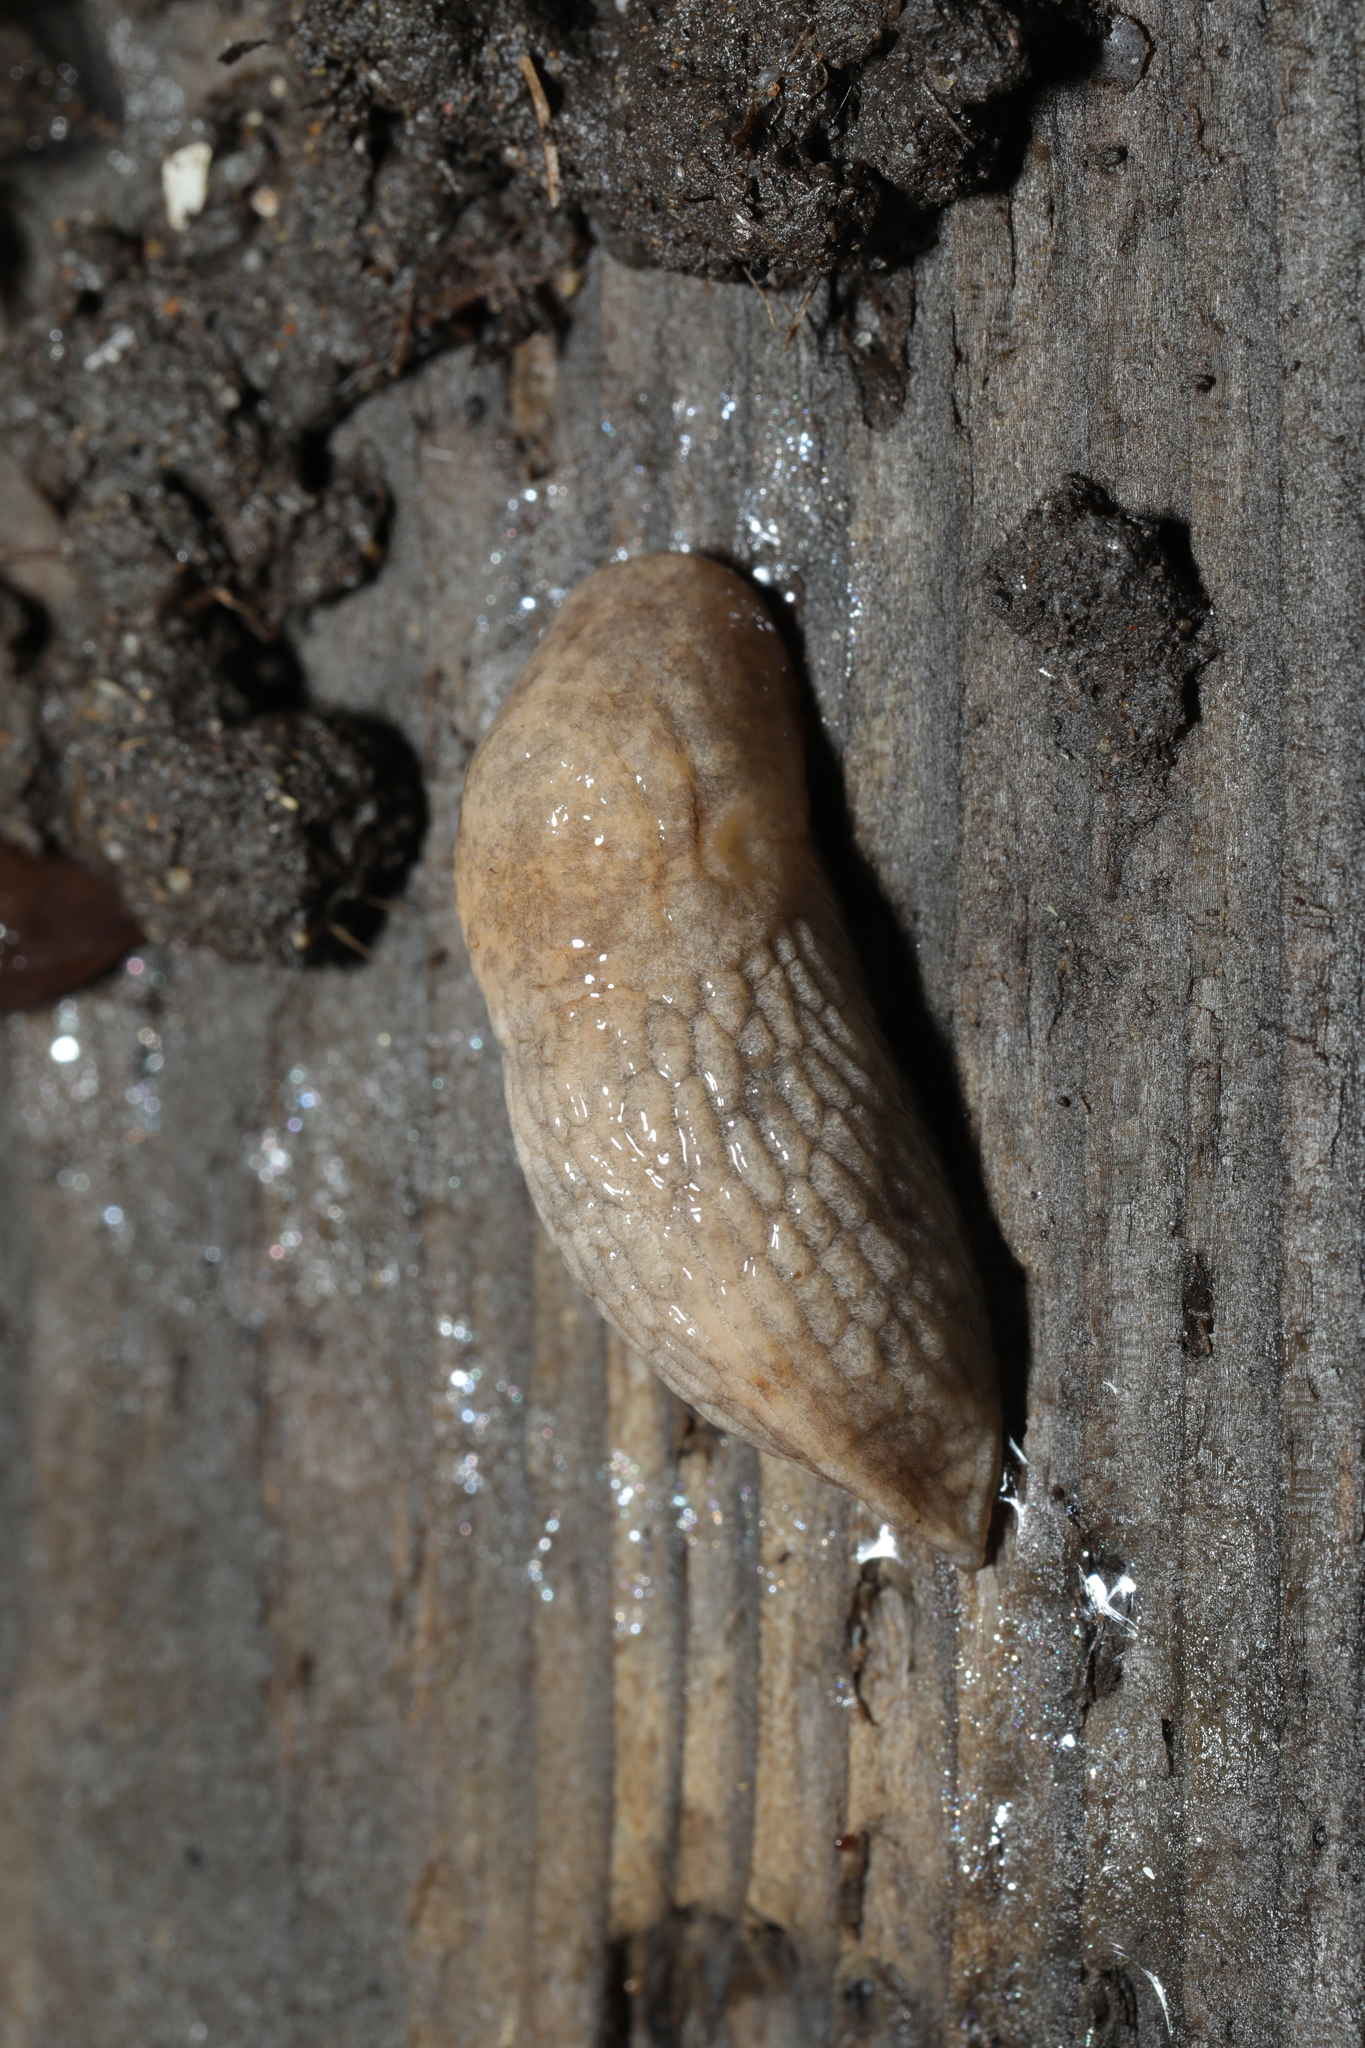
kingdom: Animalia
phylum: Mollusca
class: Gastropoda
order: Stylommatophora
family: Agriolimacidae
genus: Deroceras
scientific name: Deroceras reticulatum
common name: Gray field slug
